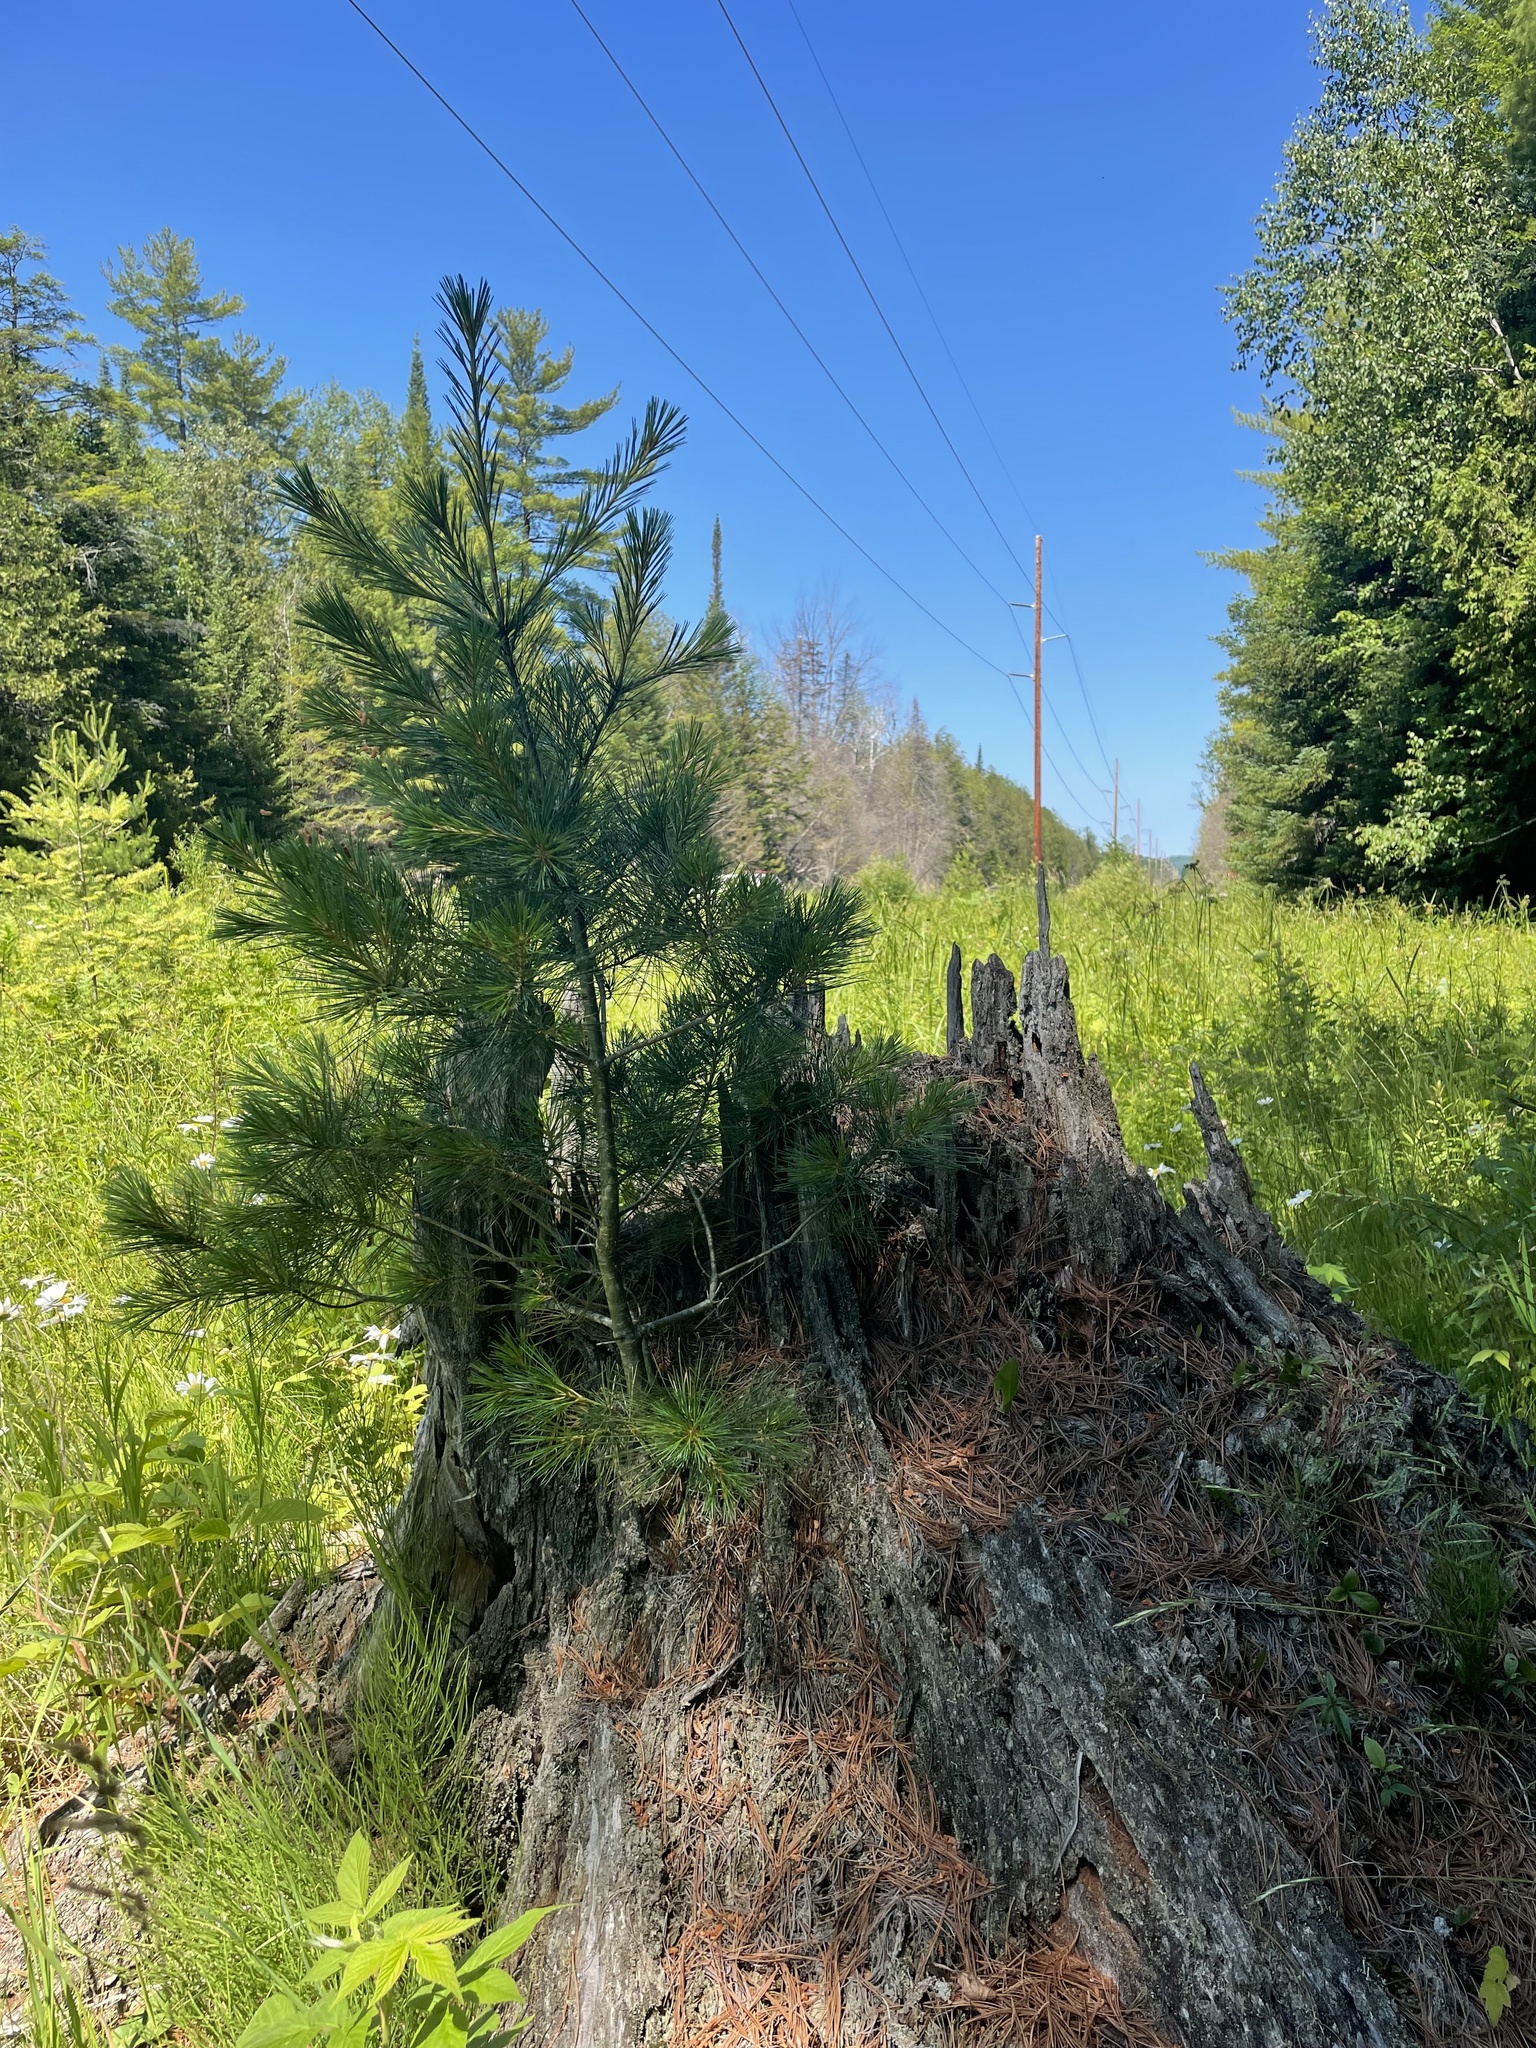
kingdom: Plantae
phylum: Tracheophyta
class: Pinopsida
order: Pinales
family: Pinaceae
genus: Pinus
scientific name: Pinus strobus
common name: Weymouth pine
